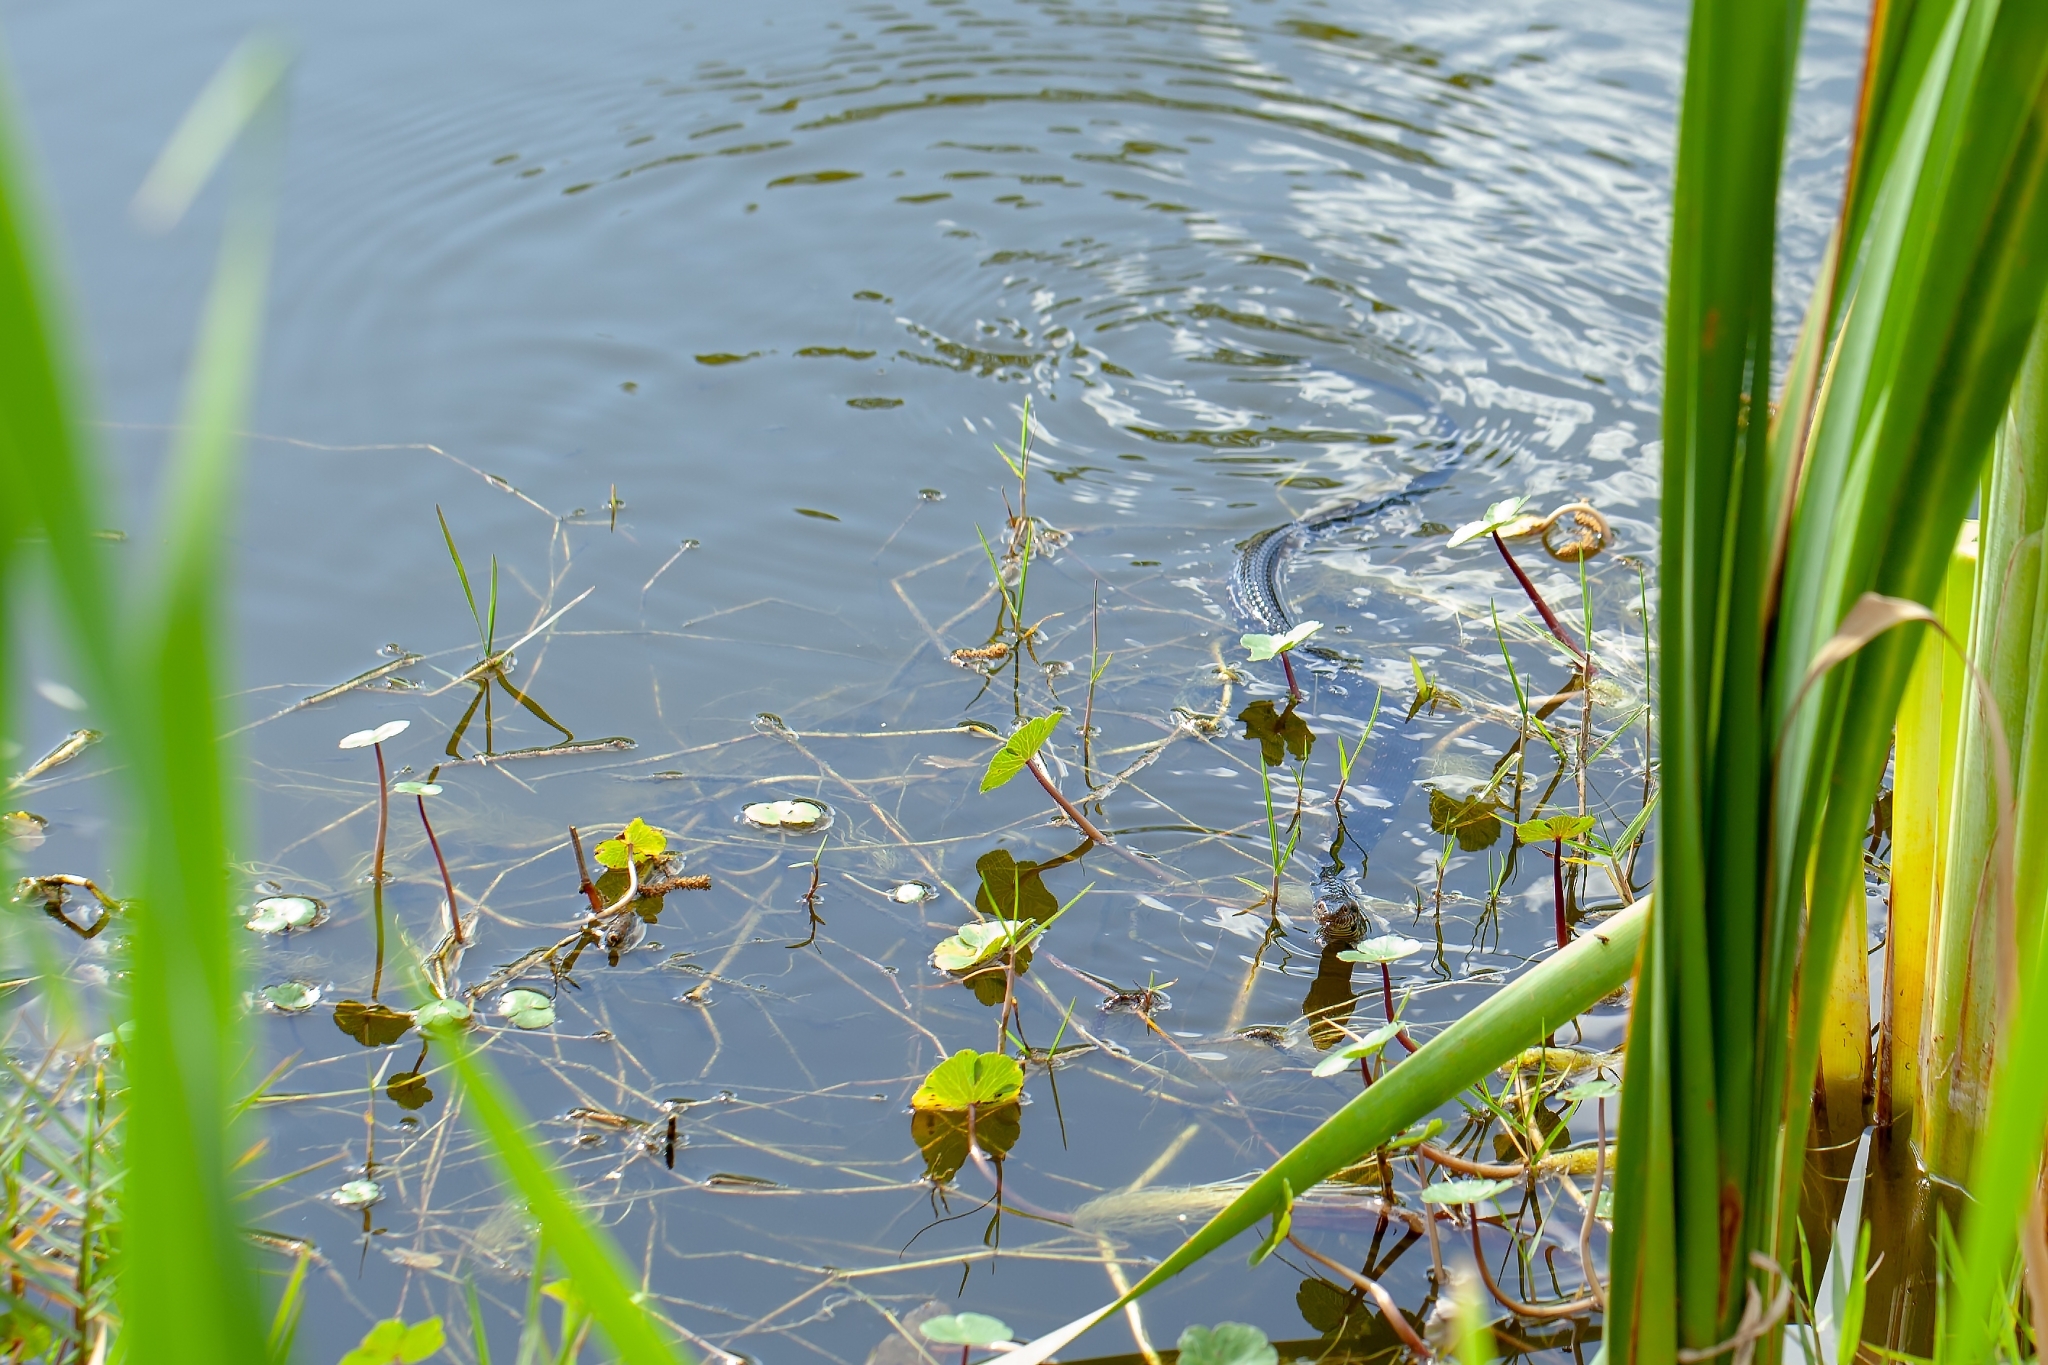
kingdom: Animalia
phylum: Chordata
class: Squamata
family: Colubridae
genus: Nerodia
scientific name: Nerodia fasciata
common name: Southern water snake
